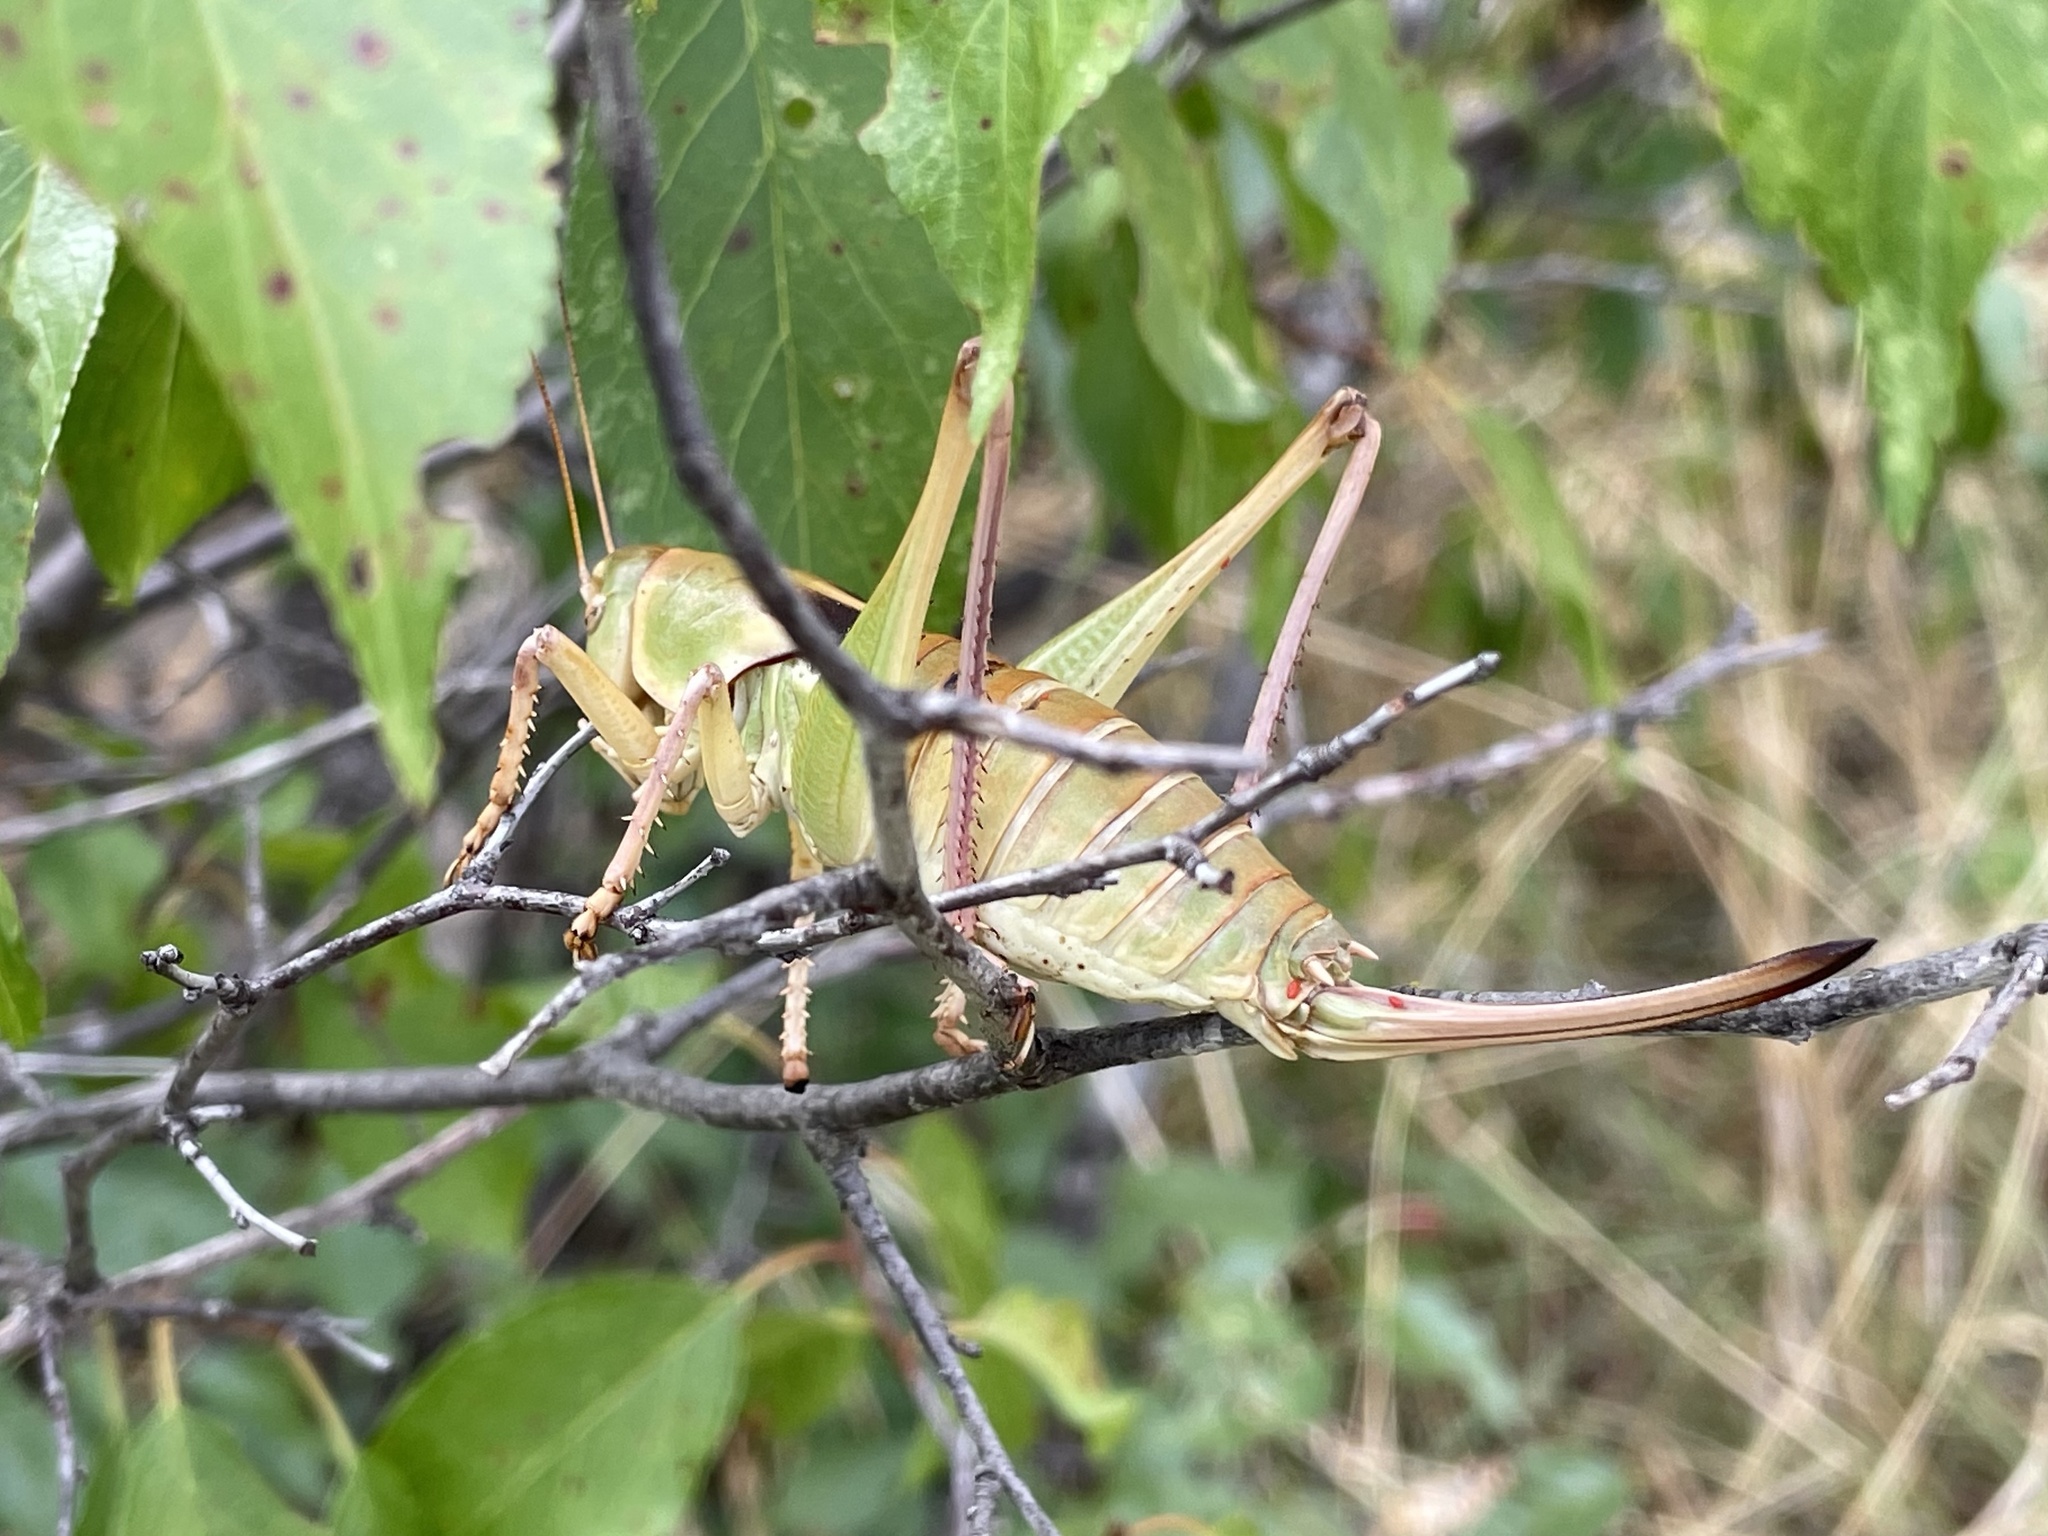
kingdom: Animalia
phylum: Arthropoda
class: Insecta
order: Orthoptera
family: Tettigoniidae
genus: Pediodectes
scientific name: Pediodectes haldemanii
